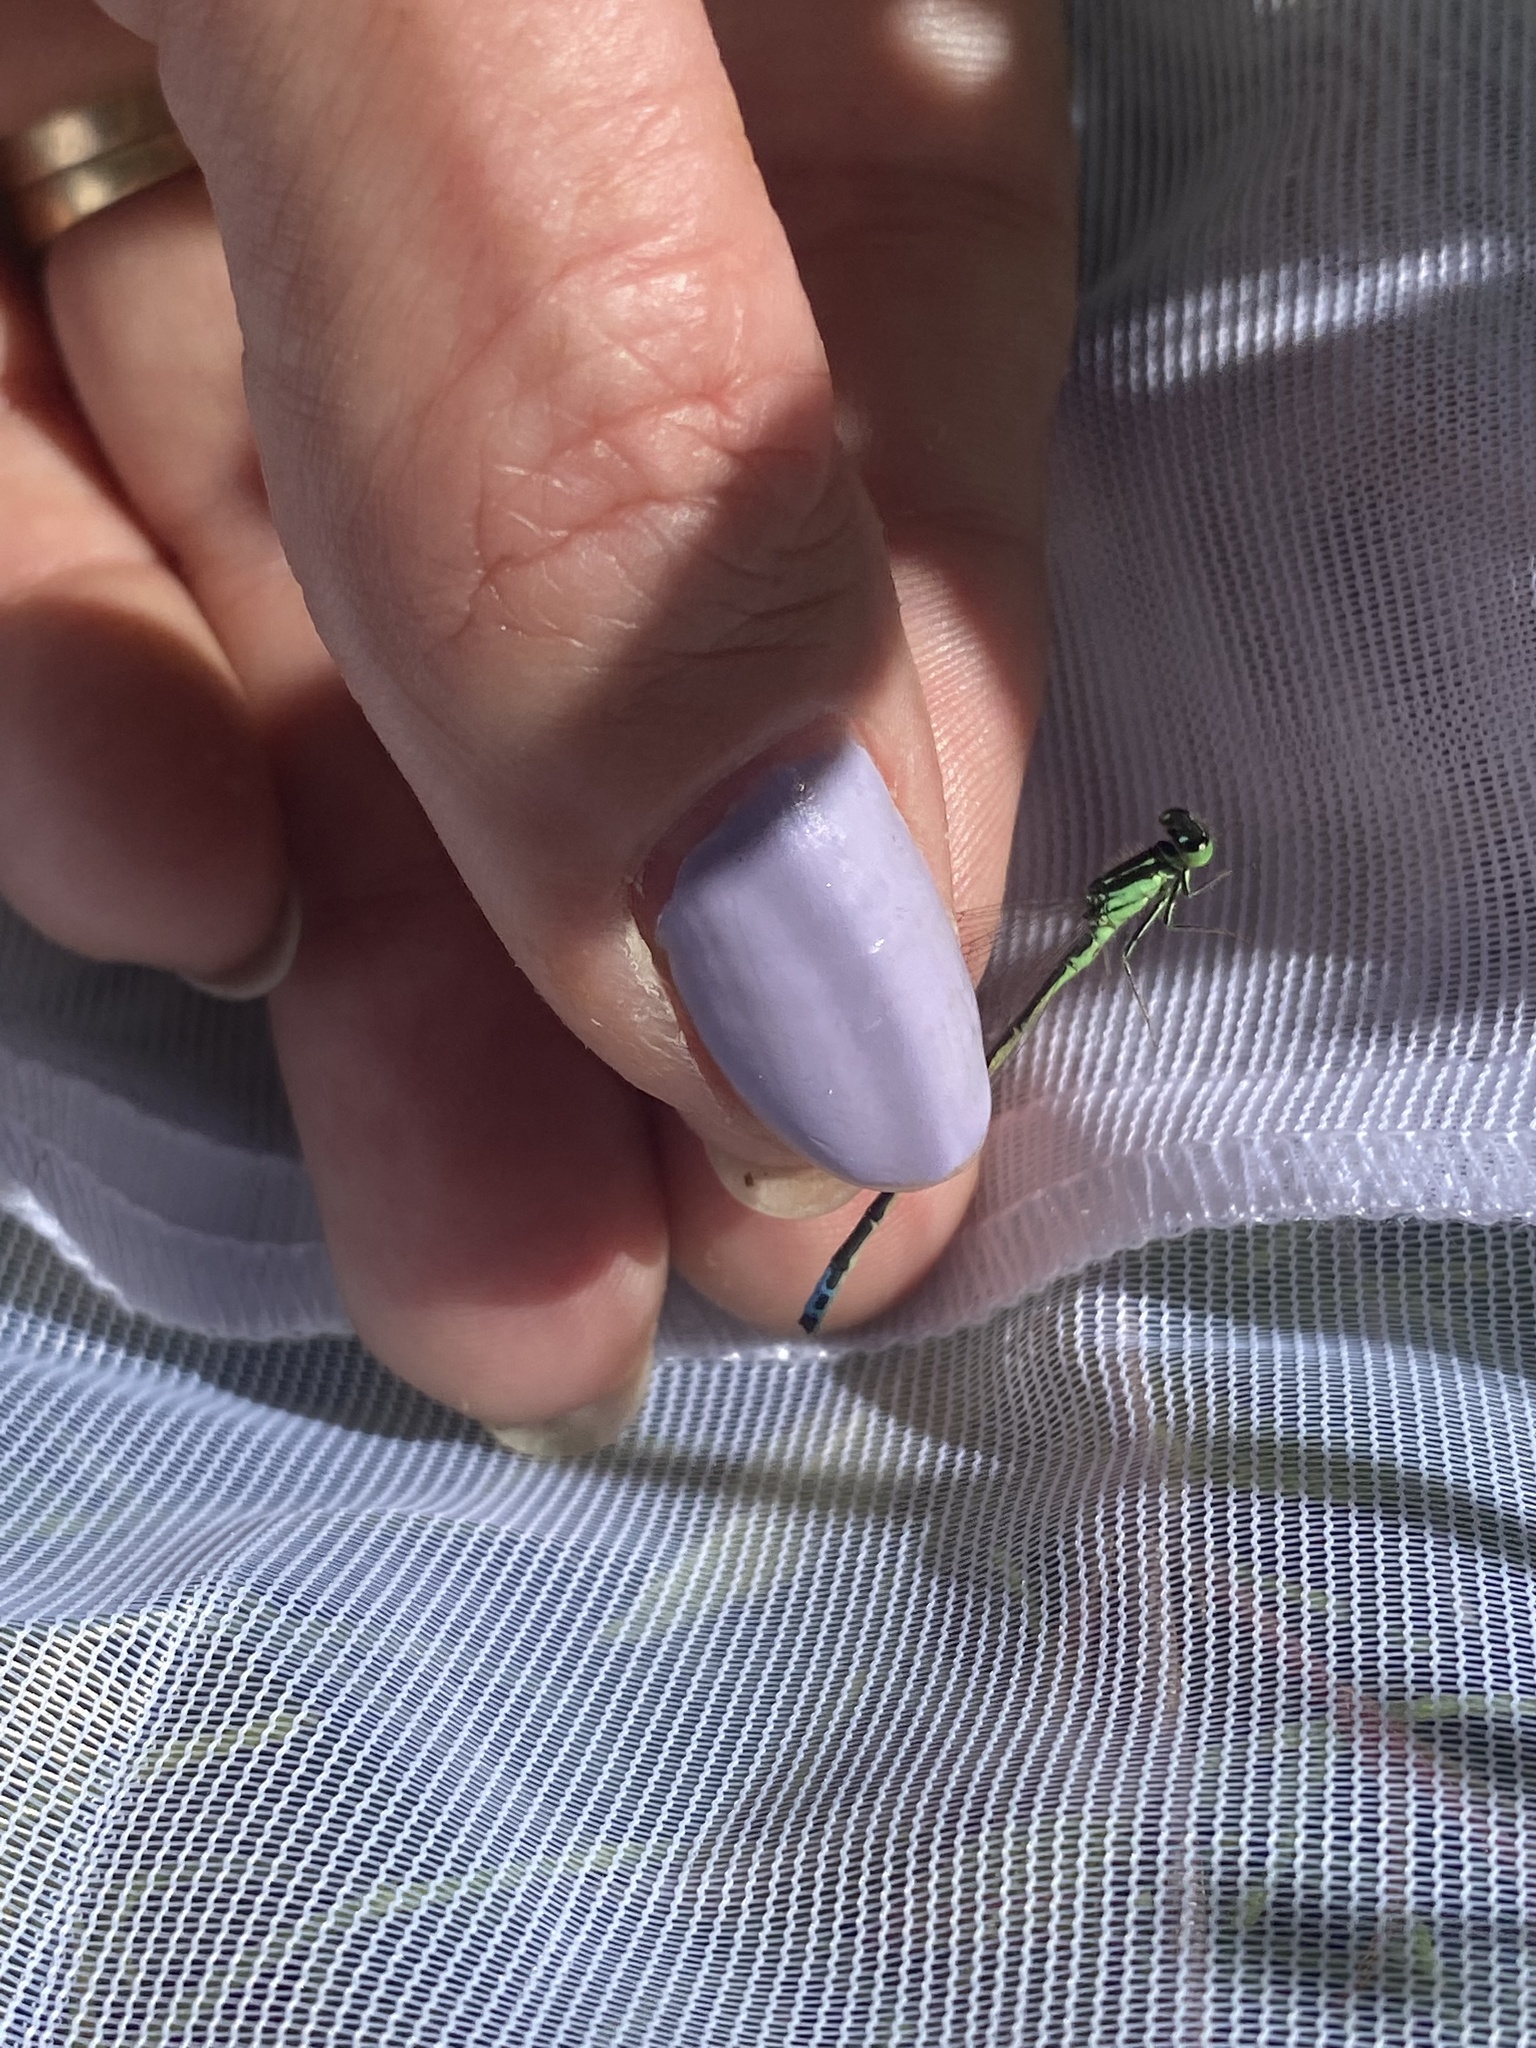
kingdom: Animalia
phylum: Arthropoda
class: Insecta
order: Odonata
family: Coenagrionidae
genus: Ischnura
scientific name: Ischnura verticalis
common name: Eastern forktail
